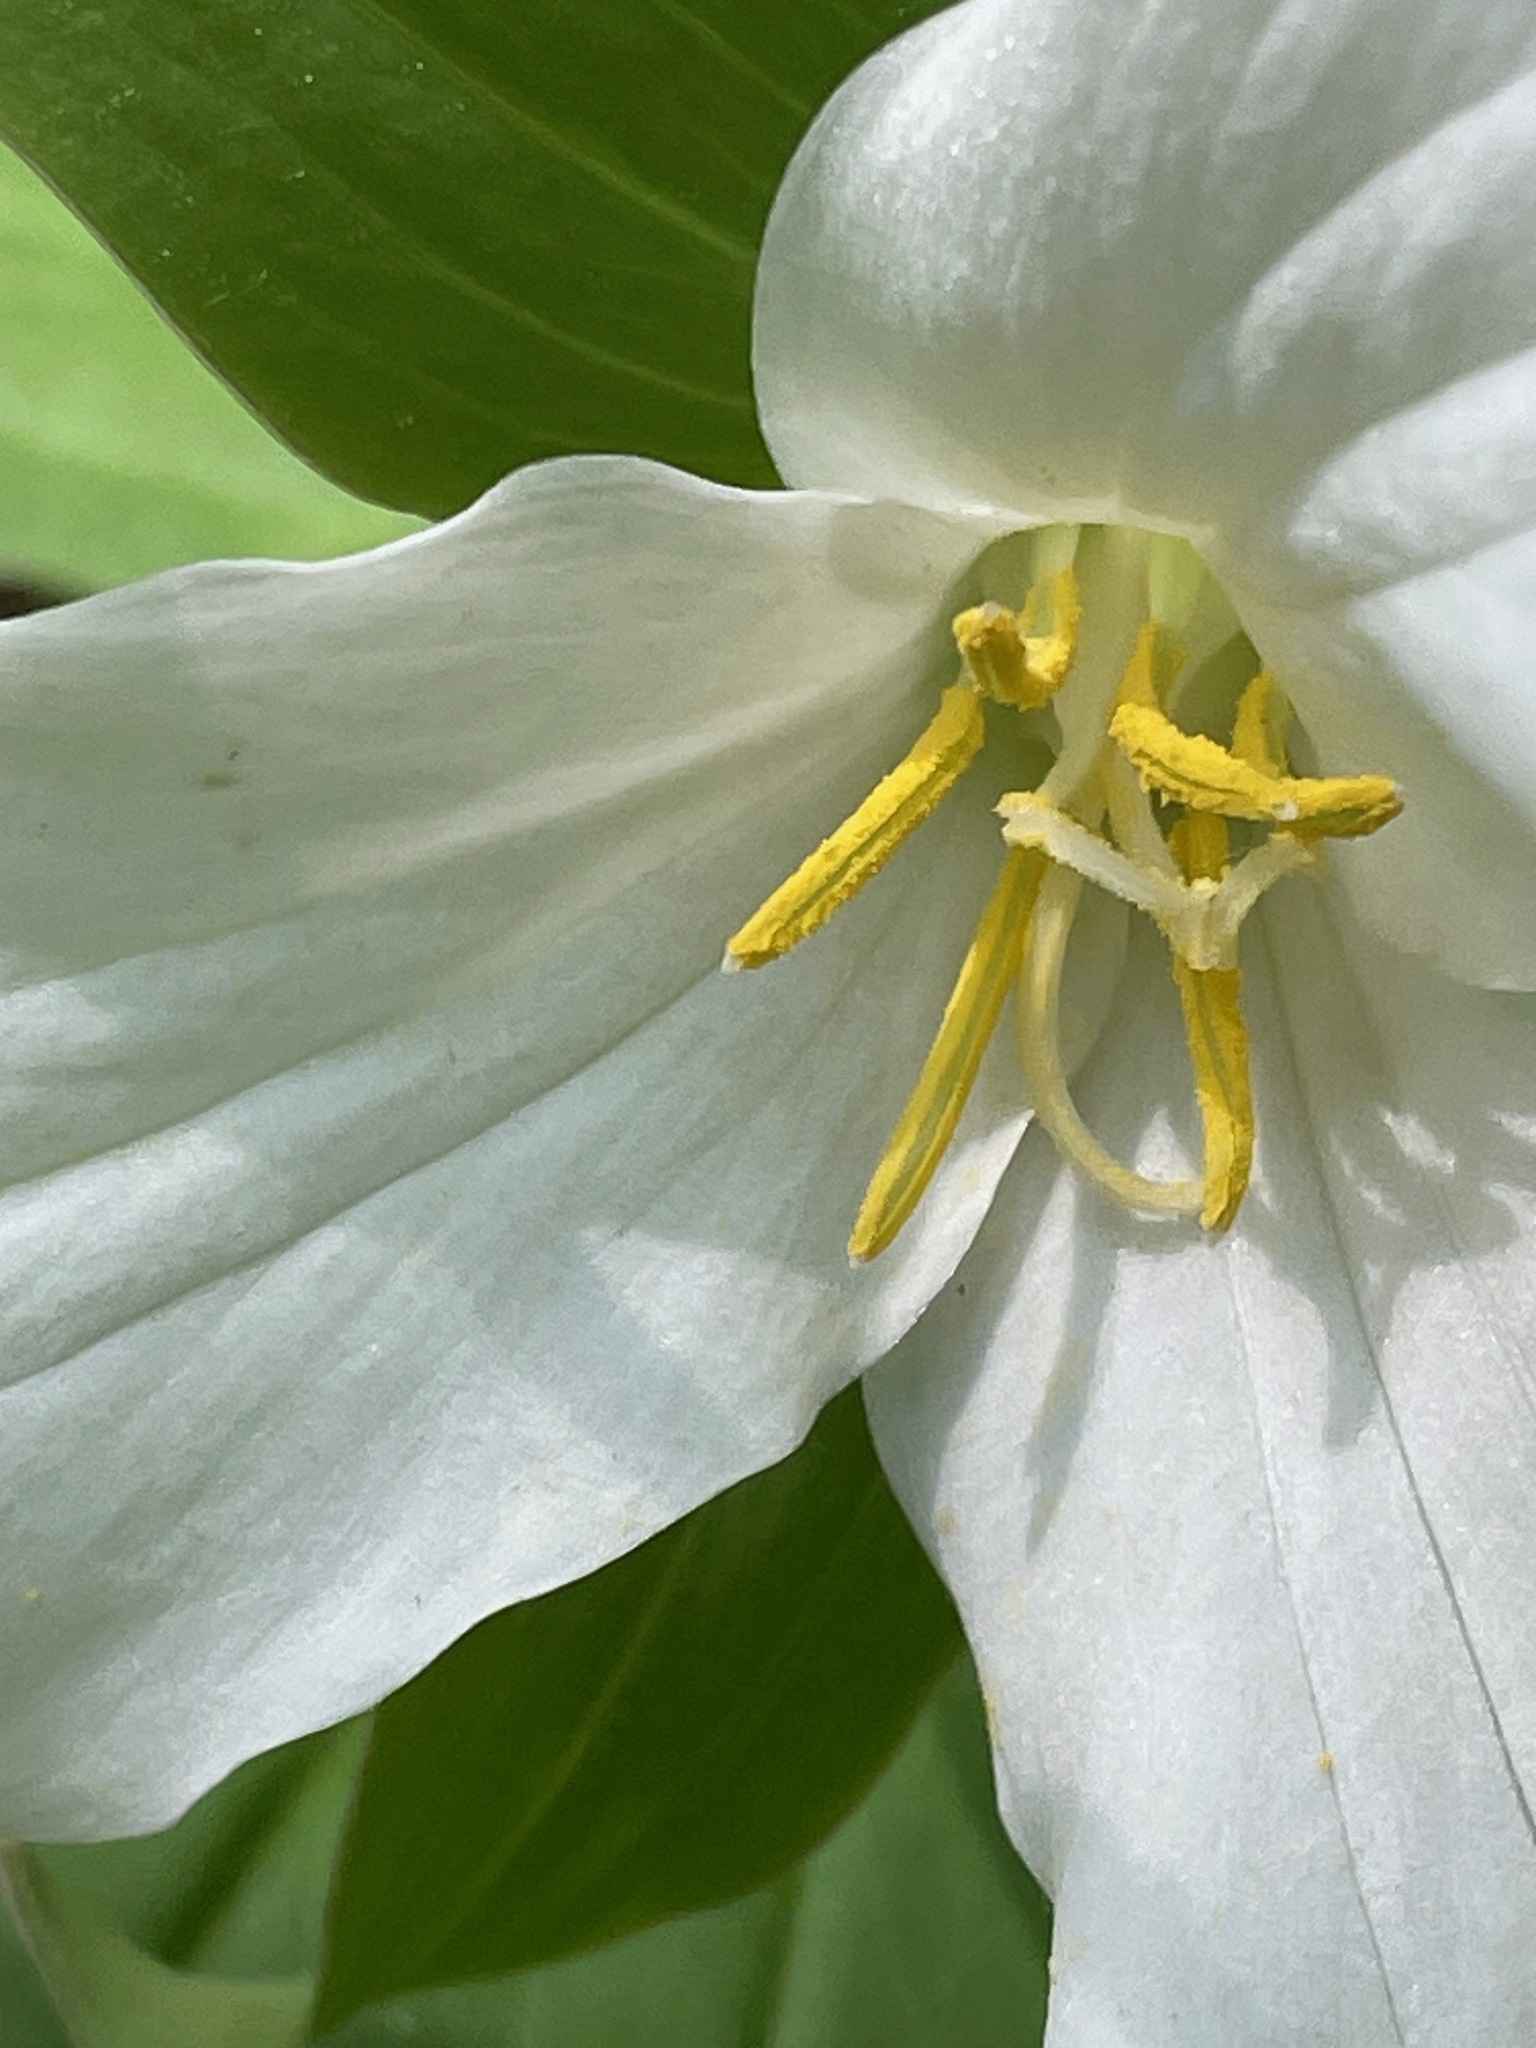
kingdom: Plantae
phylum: Tracheophyta
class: Liliopsida
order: Liliales
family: Melanthiaceae
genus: Trillium
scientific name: Trillium grandiflorum
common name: Great white trillium
